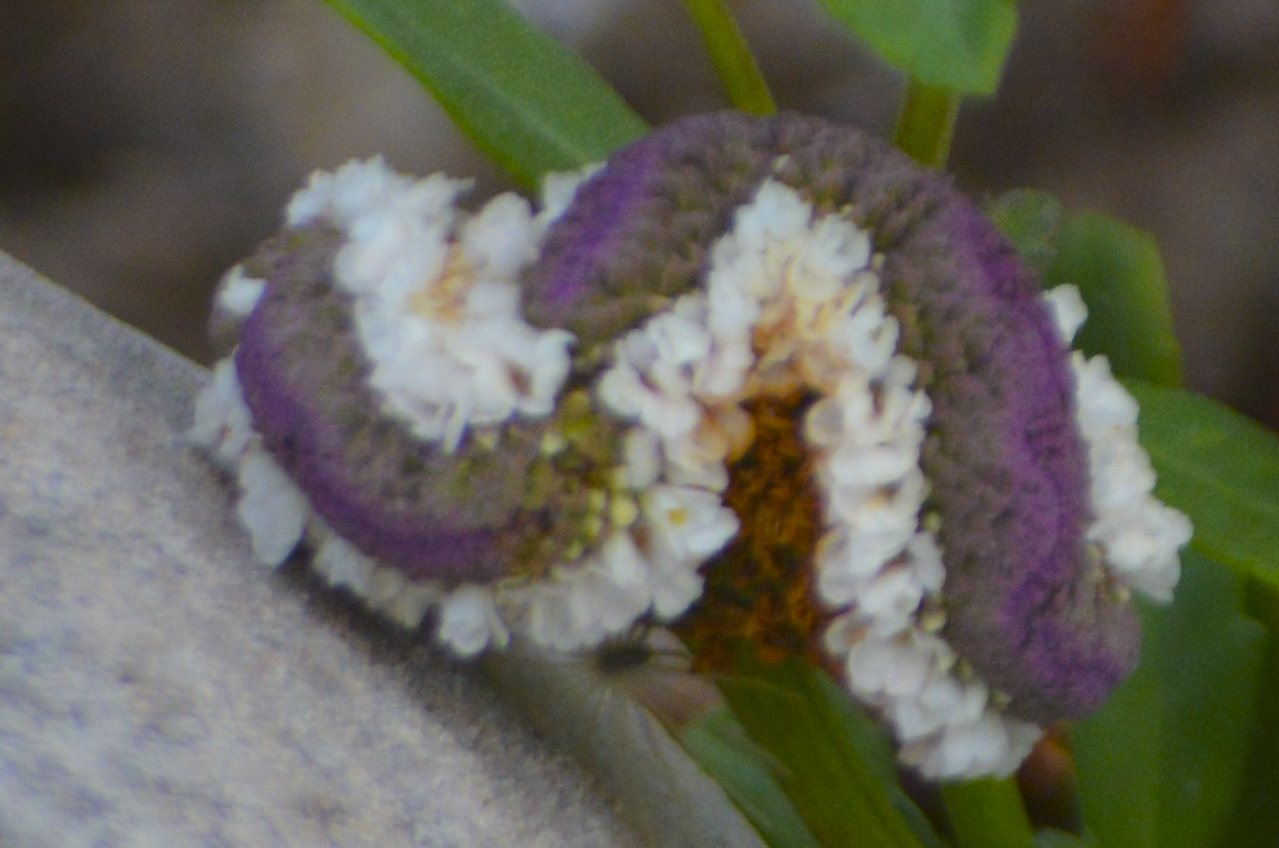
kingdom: Plantae
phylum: Tracheophyta
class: Magnoliopsida
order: Lamiales
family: Verbenaceae
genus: Phyla
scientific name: Phyla nodiflora
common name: Frogfruit
